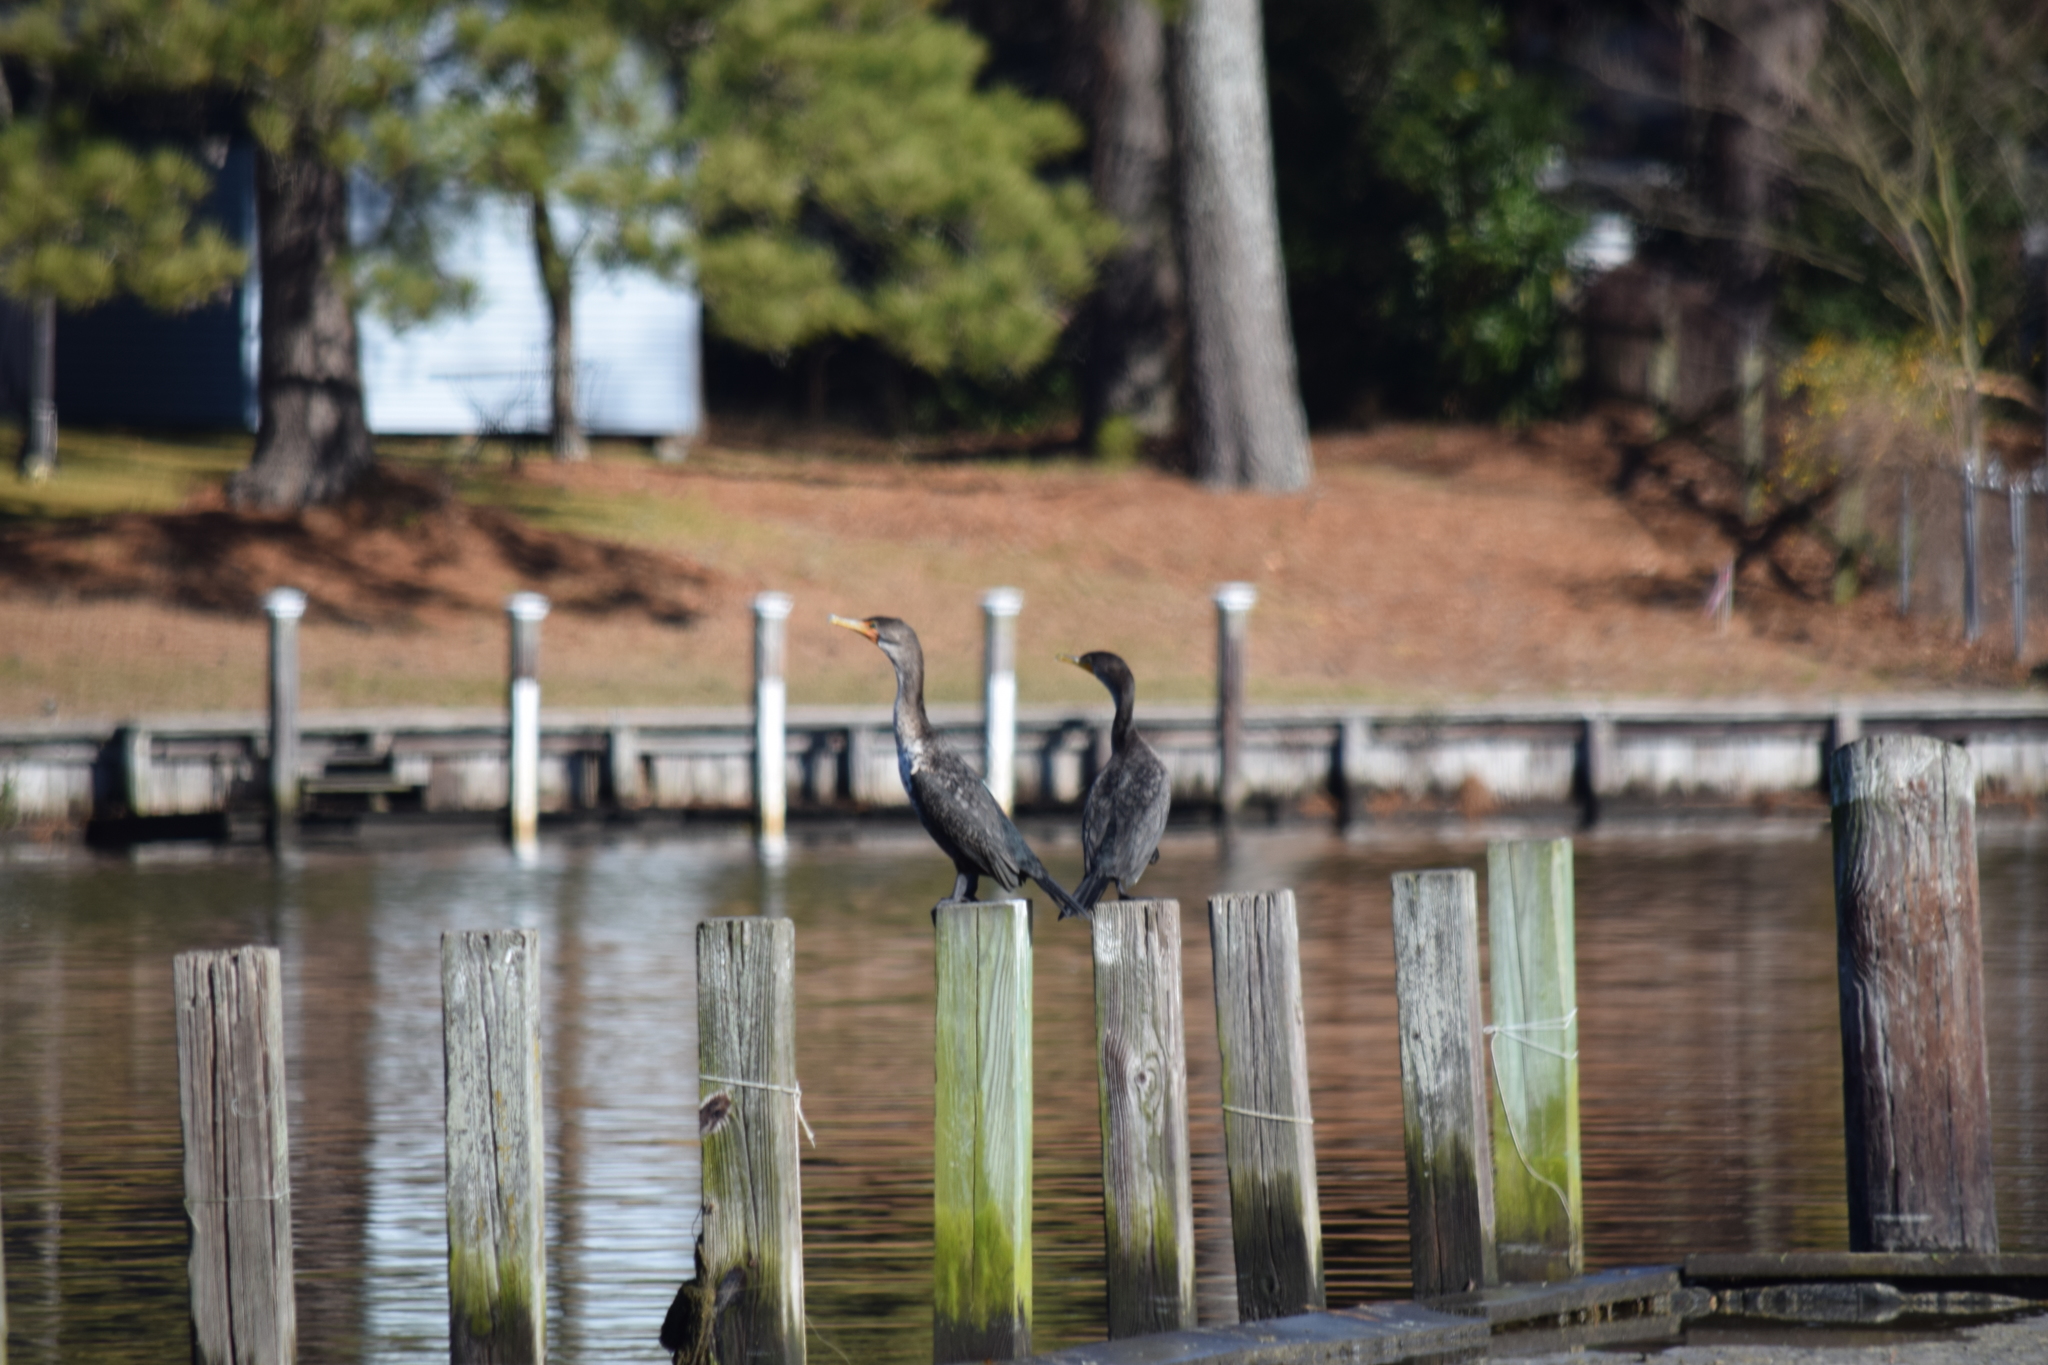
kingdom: Animalia
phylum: Chordata
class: Aves
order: Suliformes
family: Phalacrocoracidae
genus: Phalacrocorax
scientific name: Phalacrocorax auritus
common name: Double-crested cormorant
